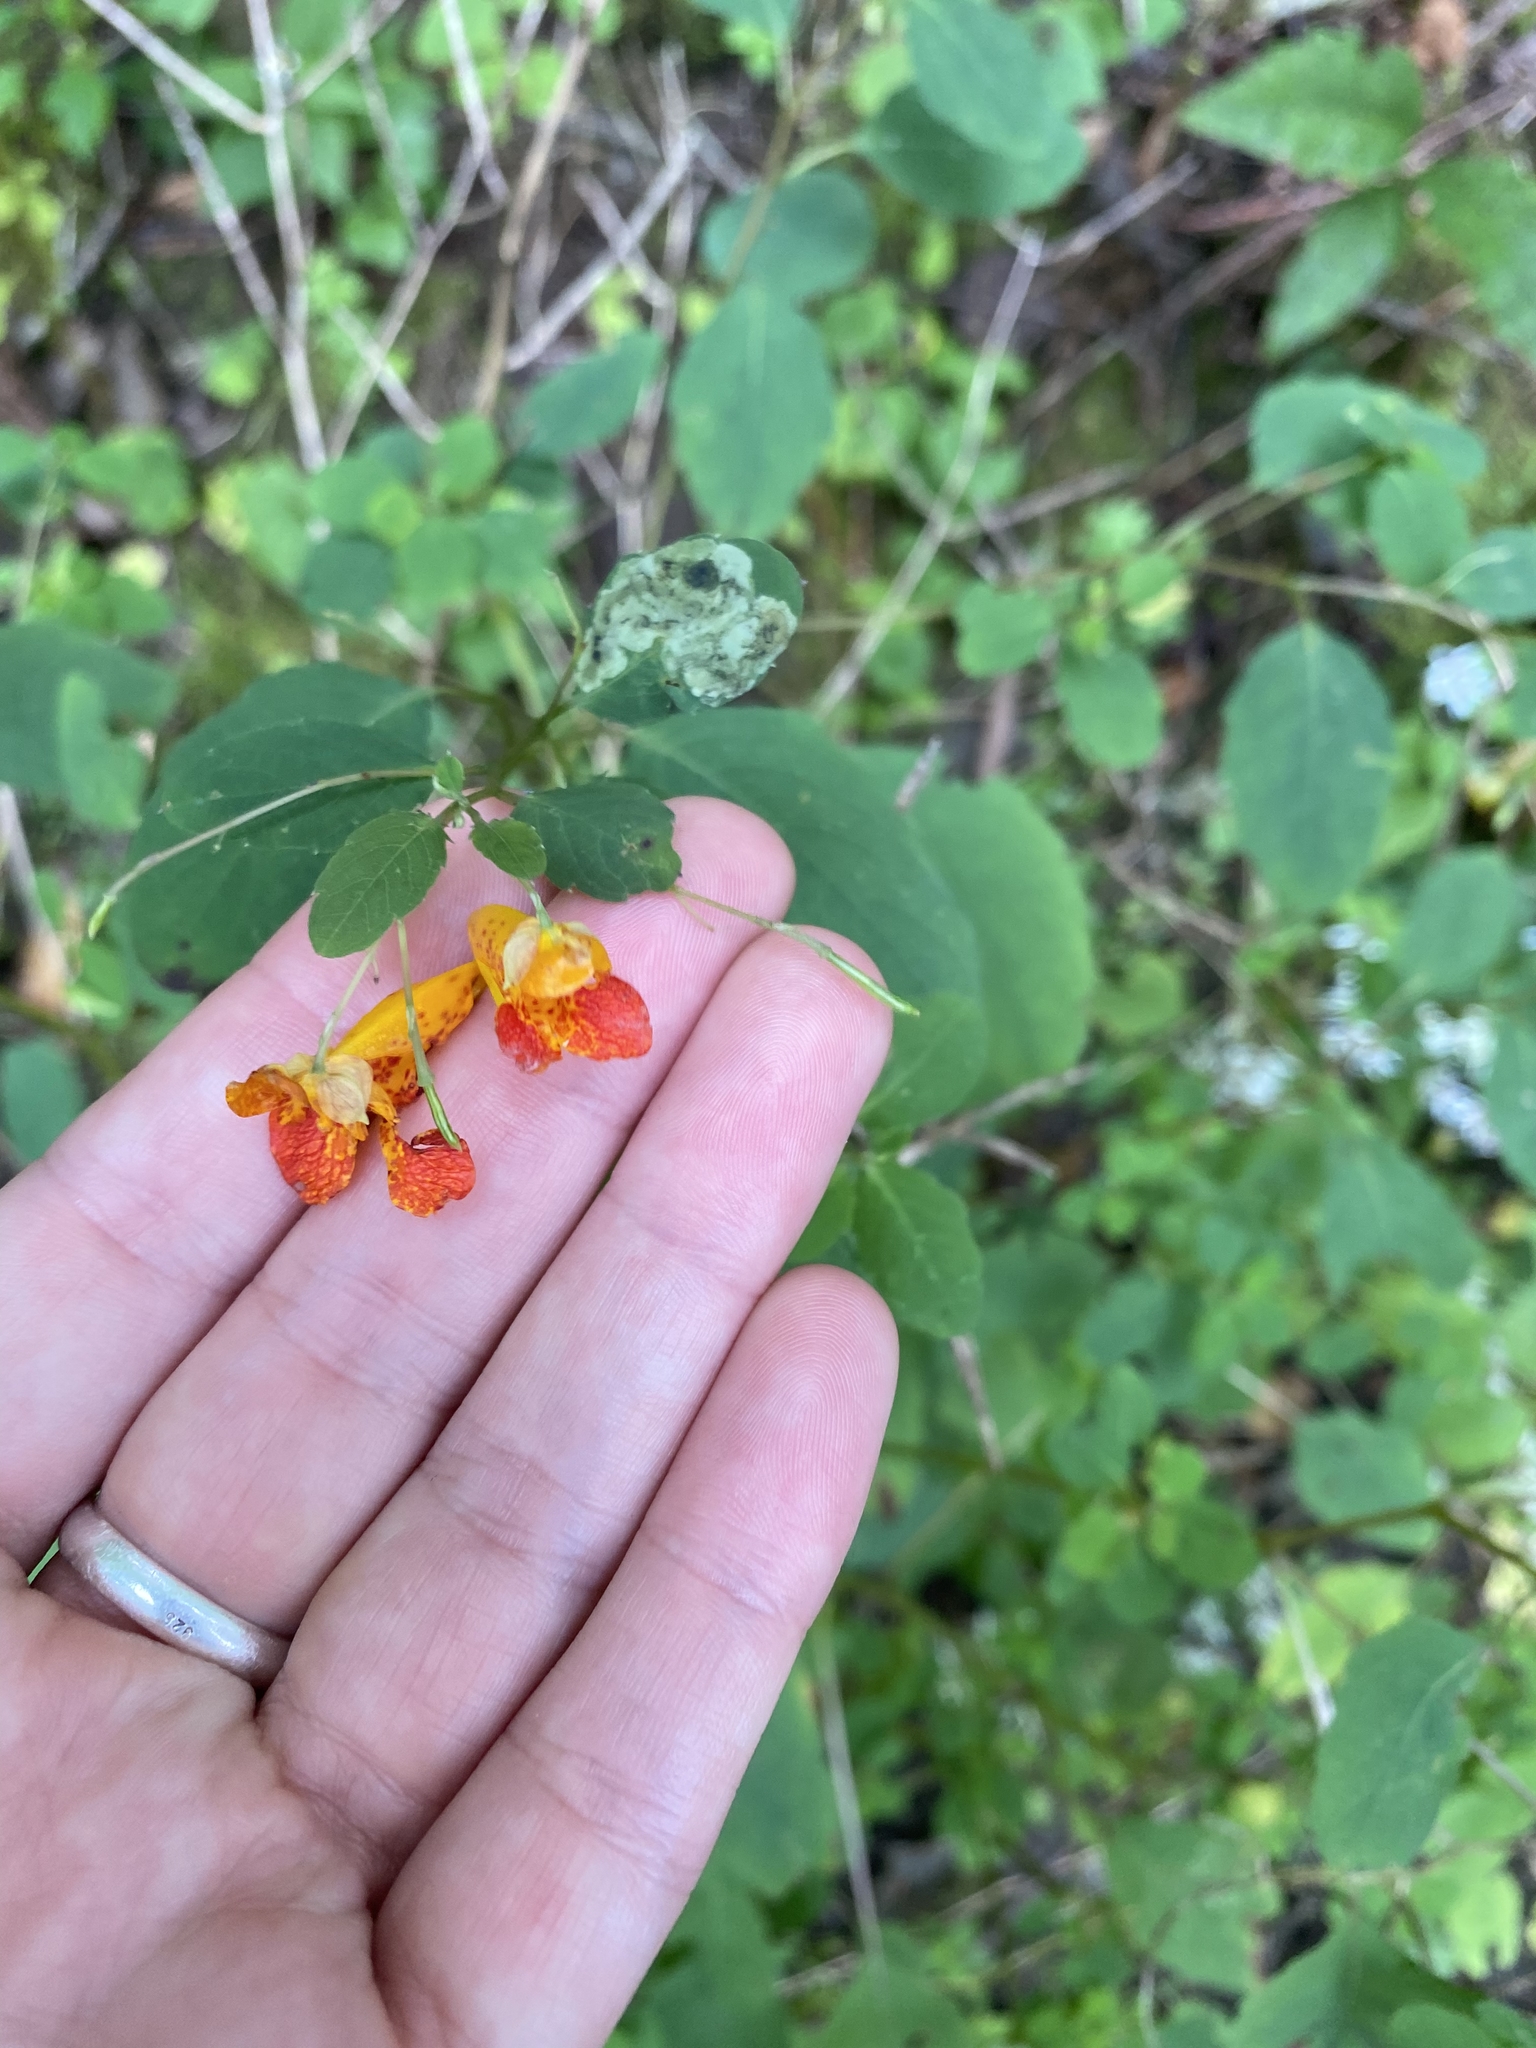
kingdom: Plantae
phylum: Tracheophyta
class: Magnoliopsida
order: Ericales
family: Balsaminaceae
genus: Impatiens
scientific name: Impatiens capensis
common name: Orange balsam
